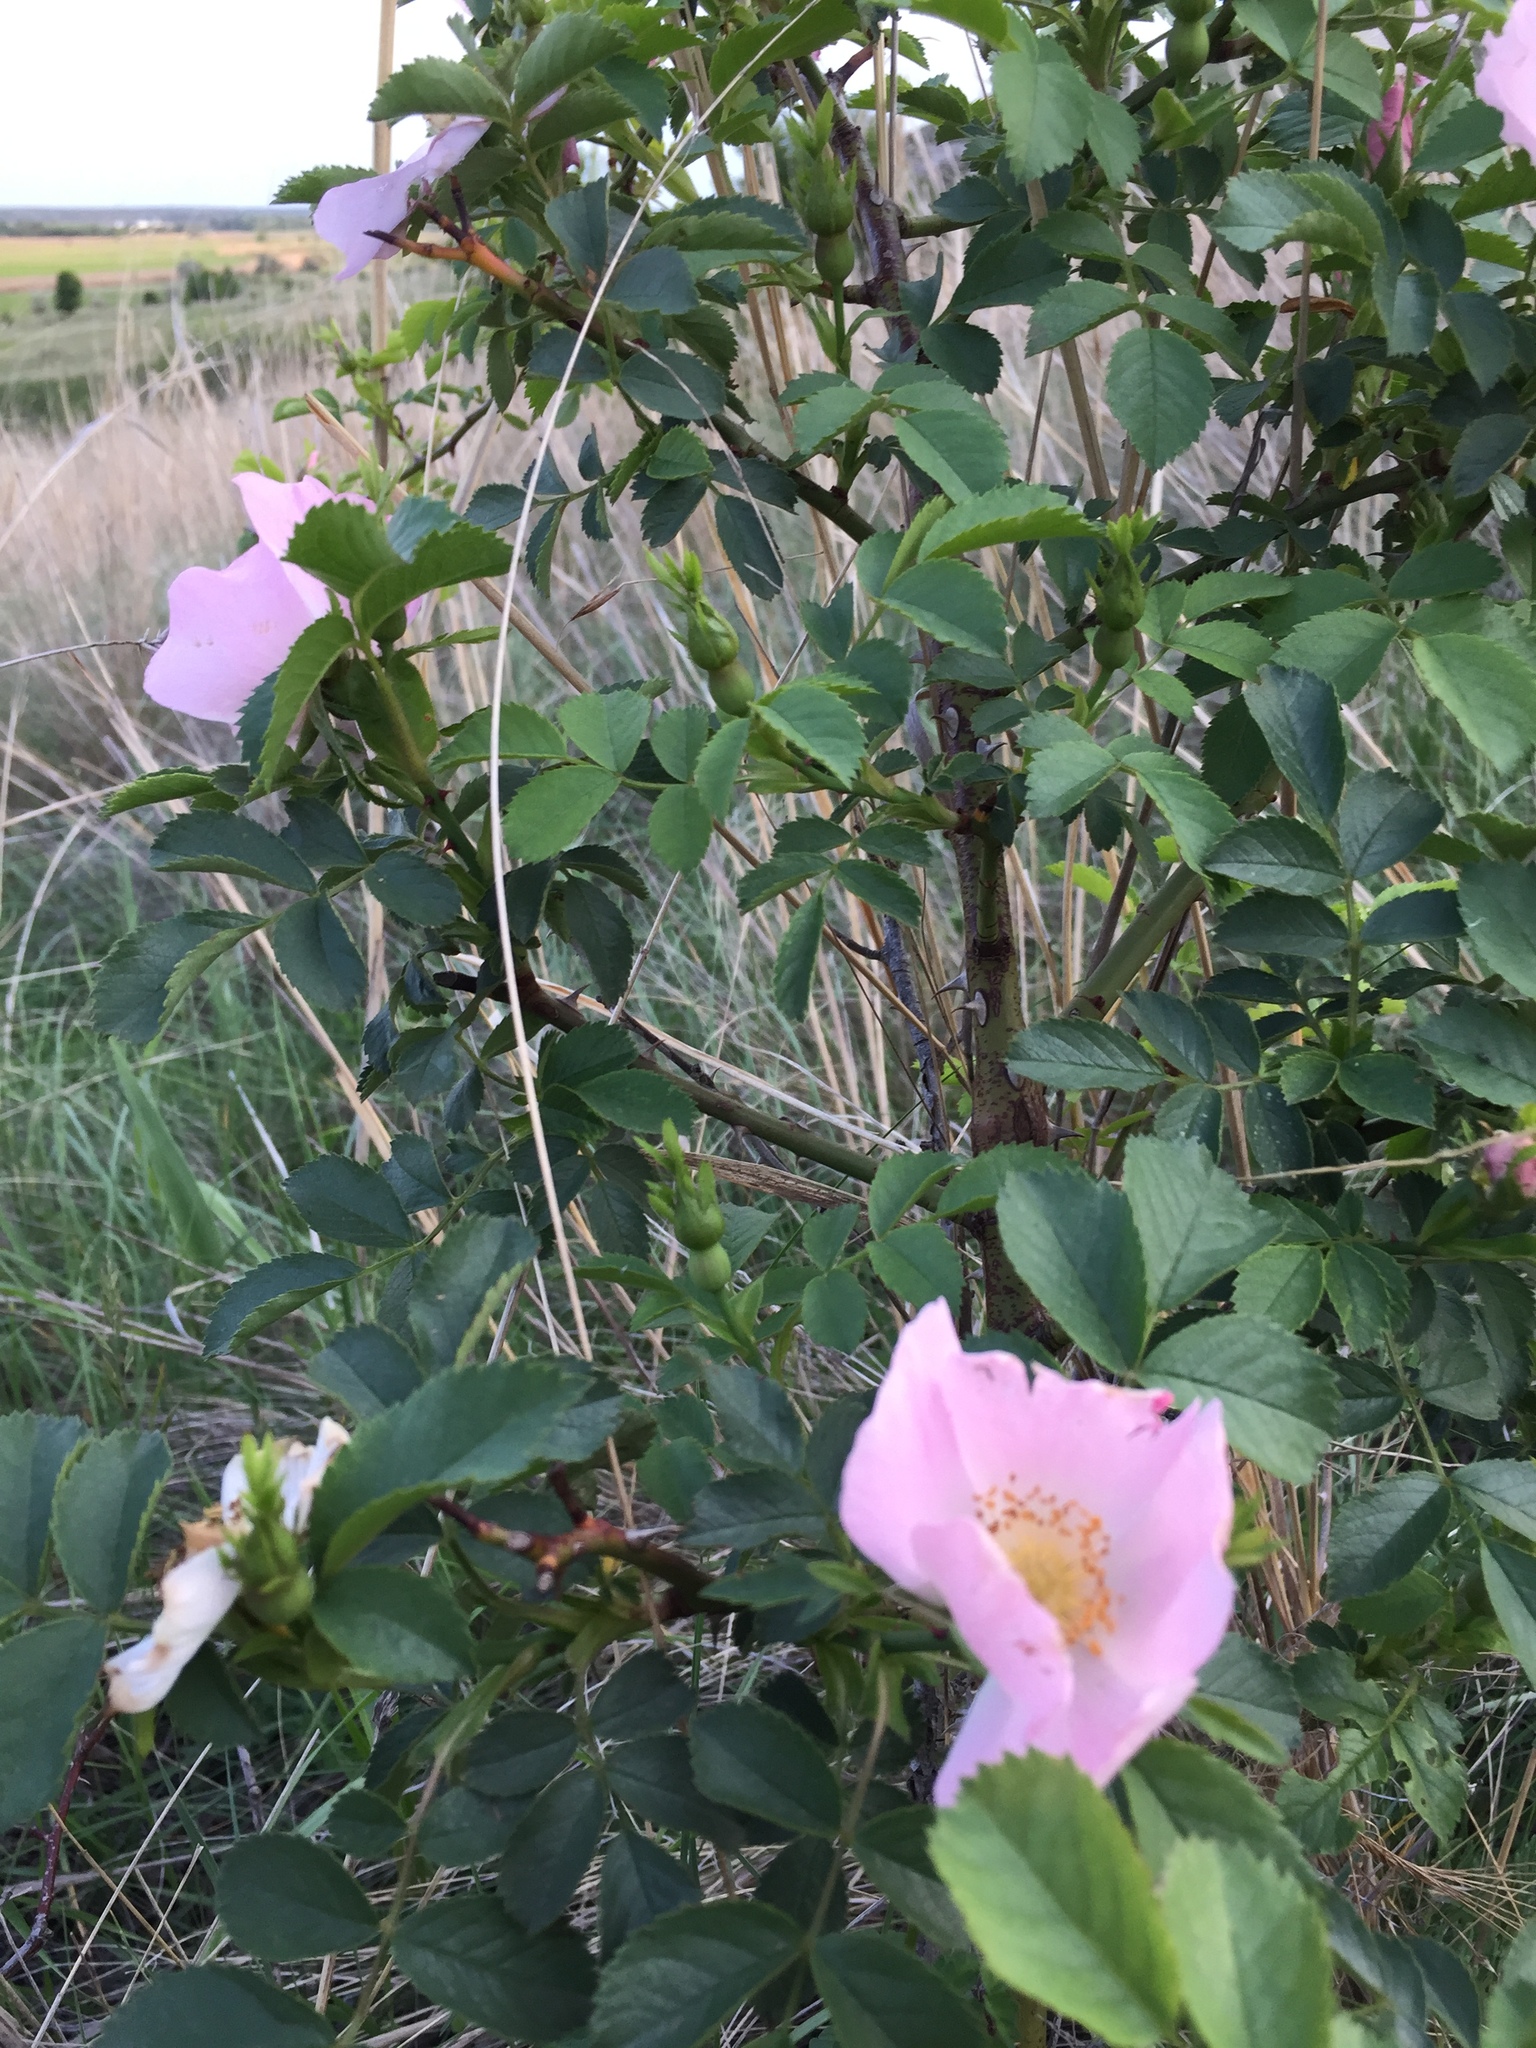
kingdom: Plantae
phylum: Tracheophyta
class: Magnoliopsida
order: Rosales
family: Rosaceae
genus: Rosa
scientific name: Rosa canina
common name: Dog rose
